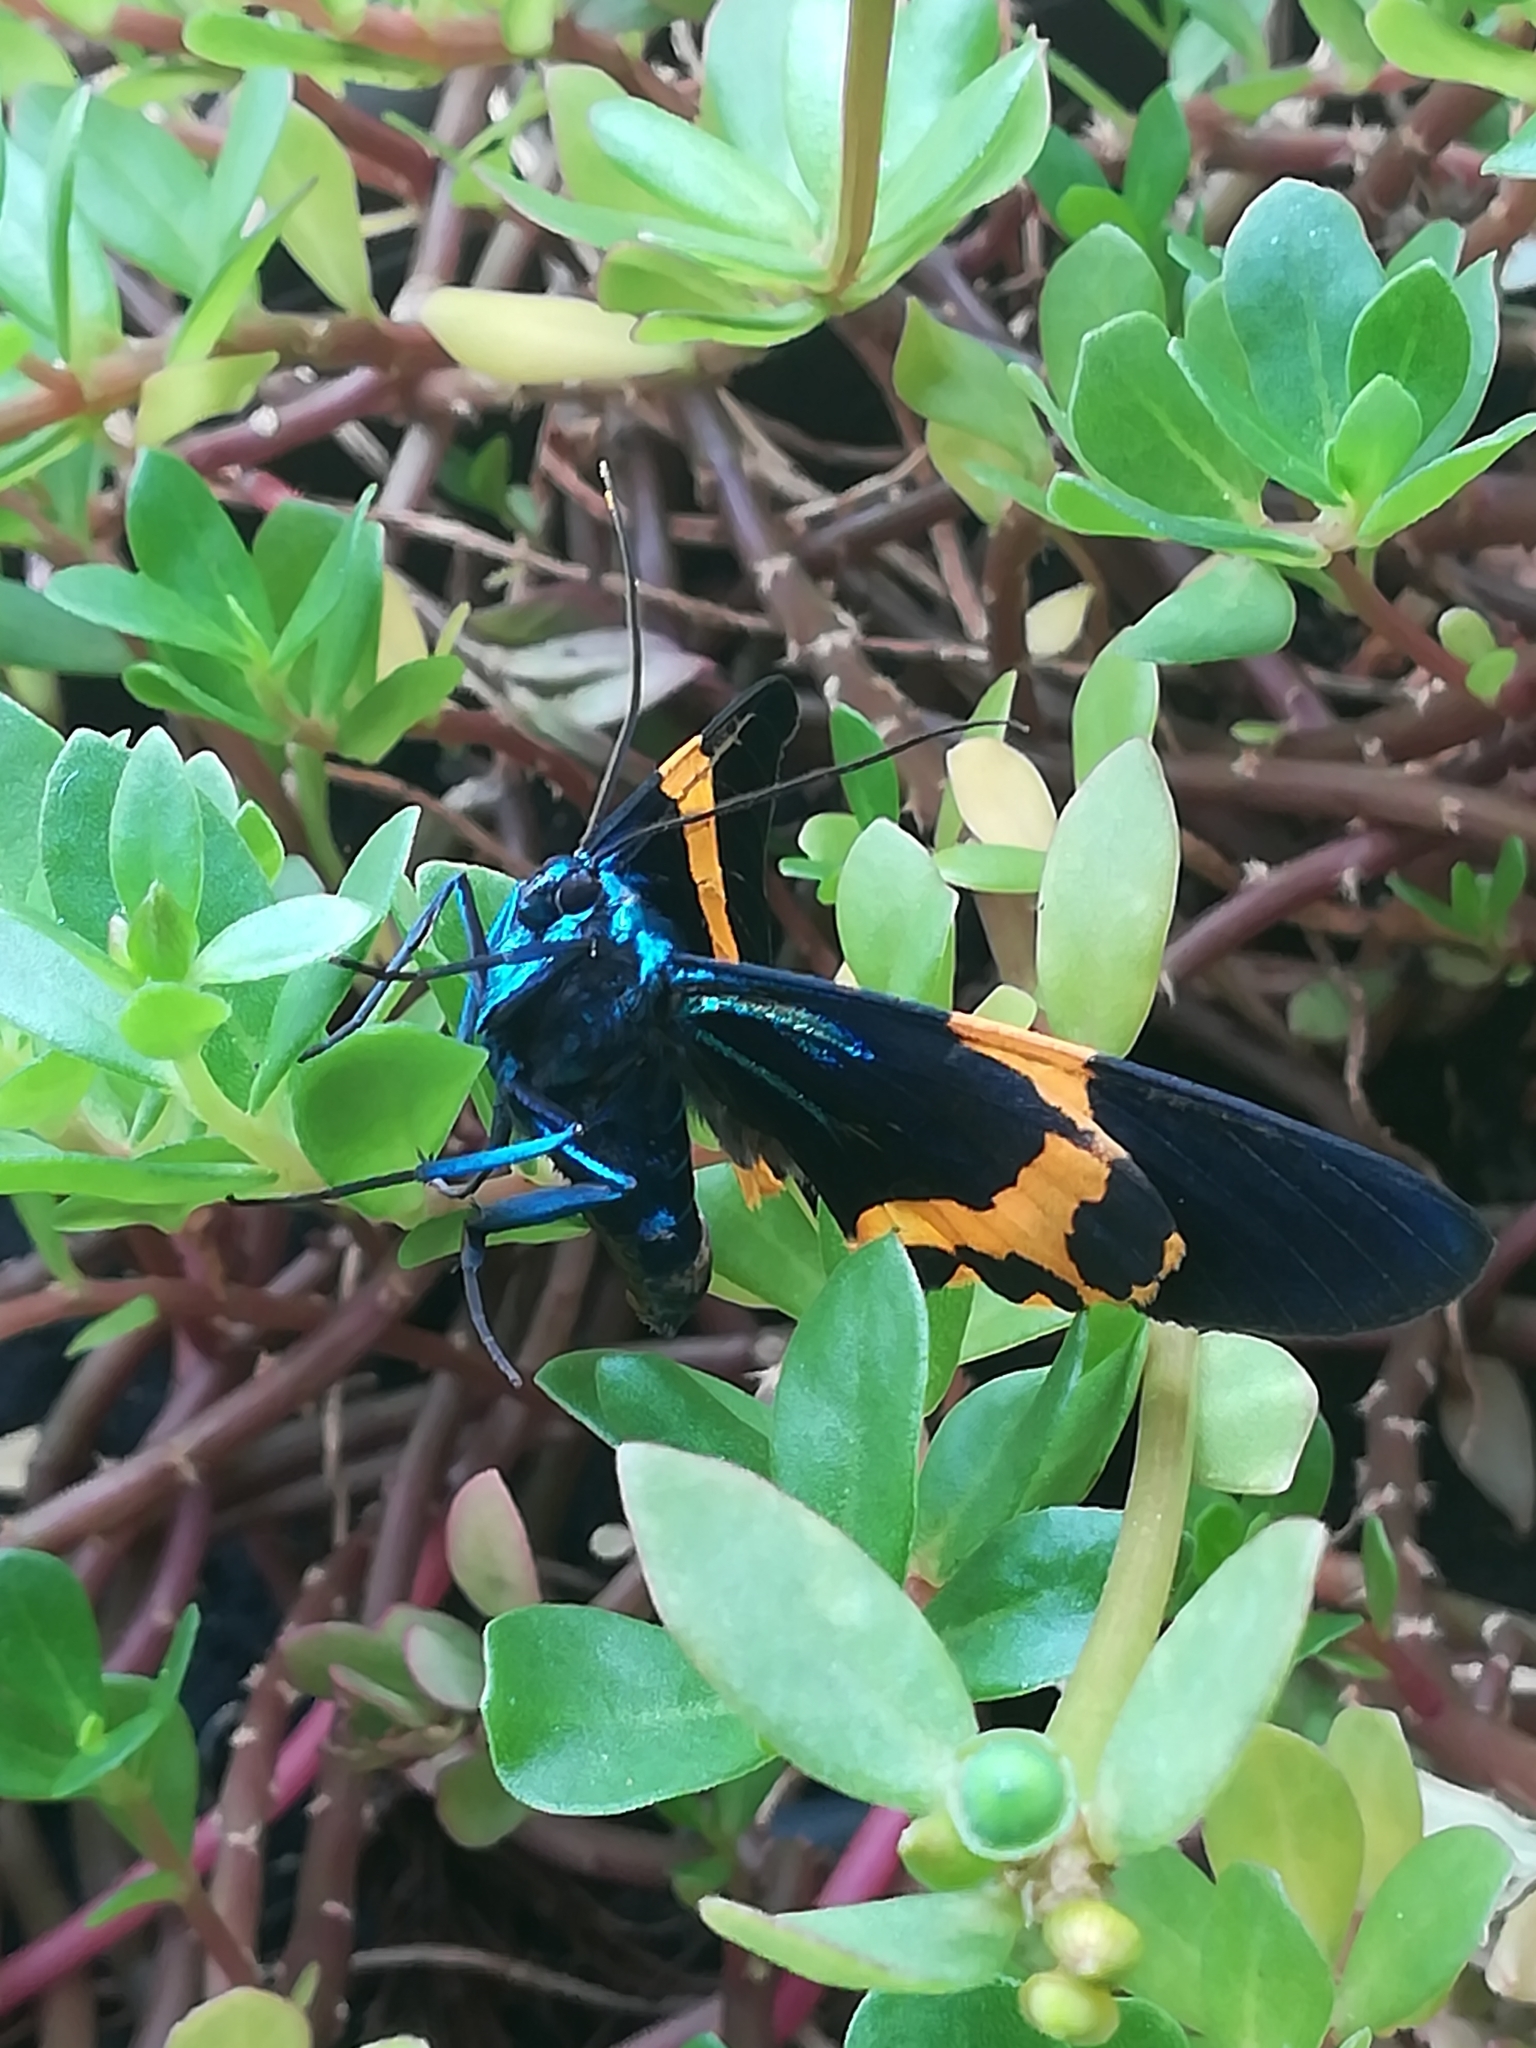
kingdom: Animalia
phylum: Arthropoda
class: Insecta
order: Lepidoptera
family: Geometridae
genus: Milionia
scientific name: Milionia basalis
